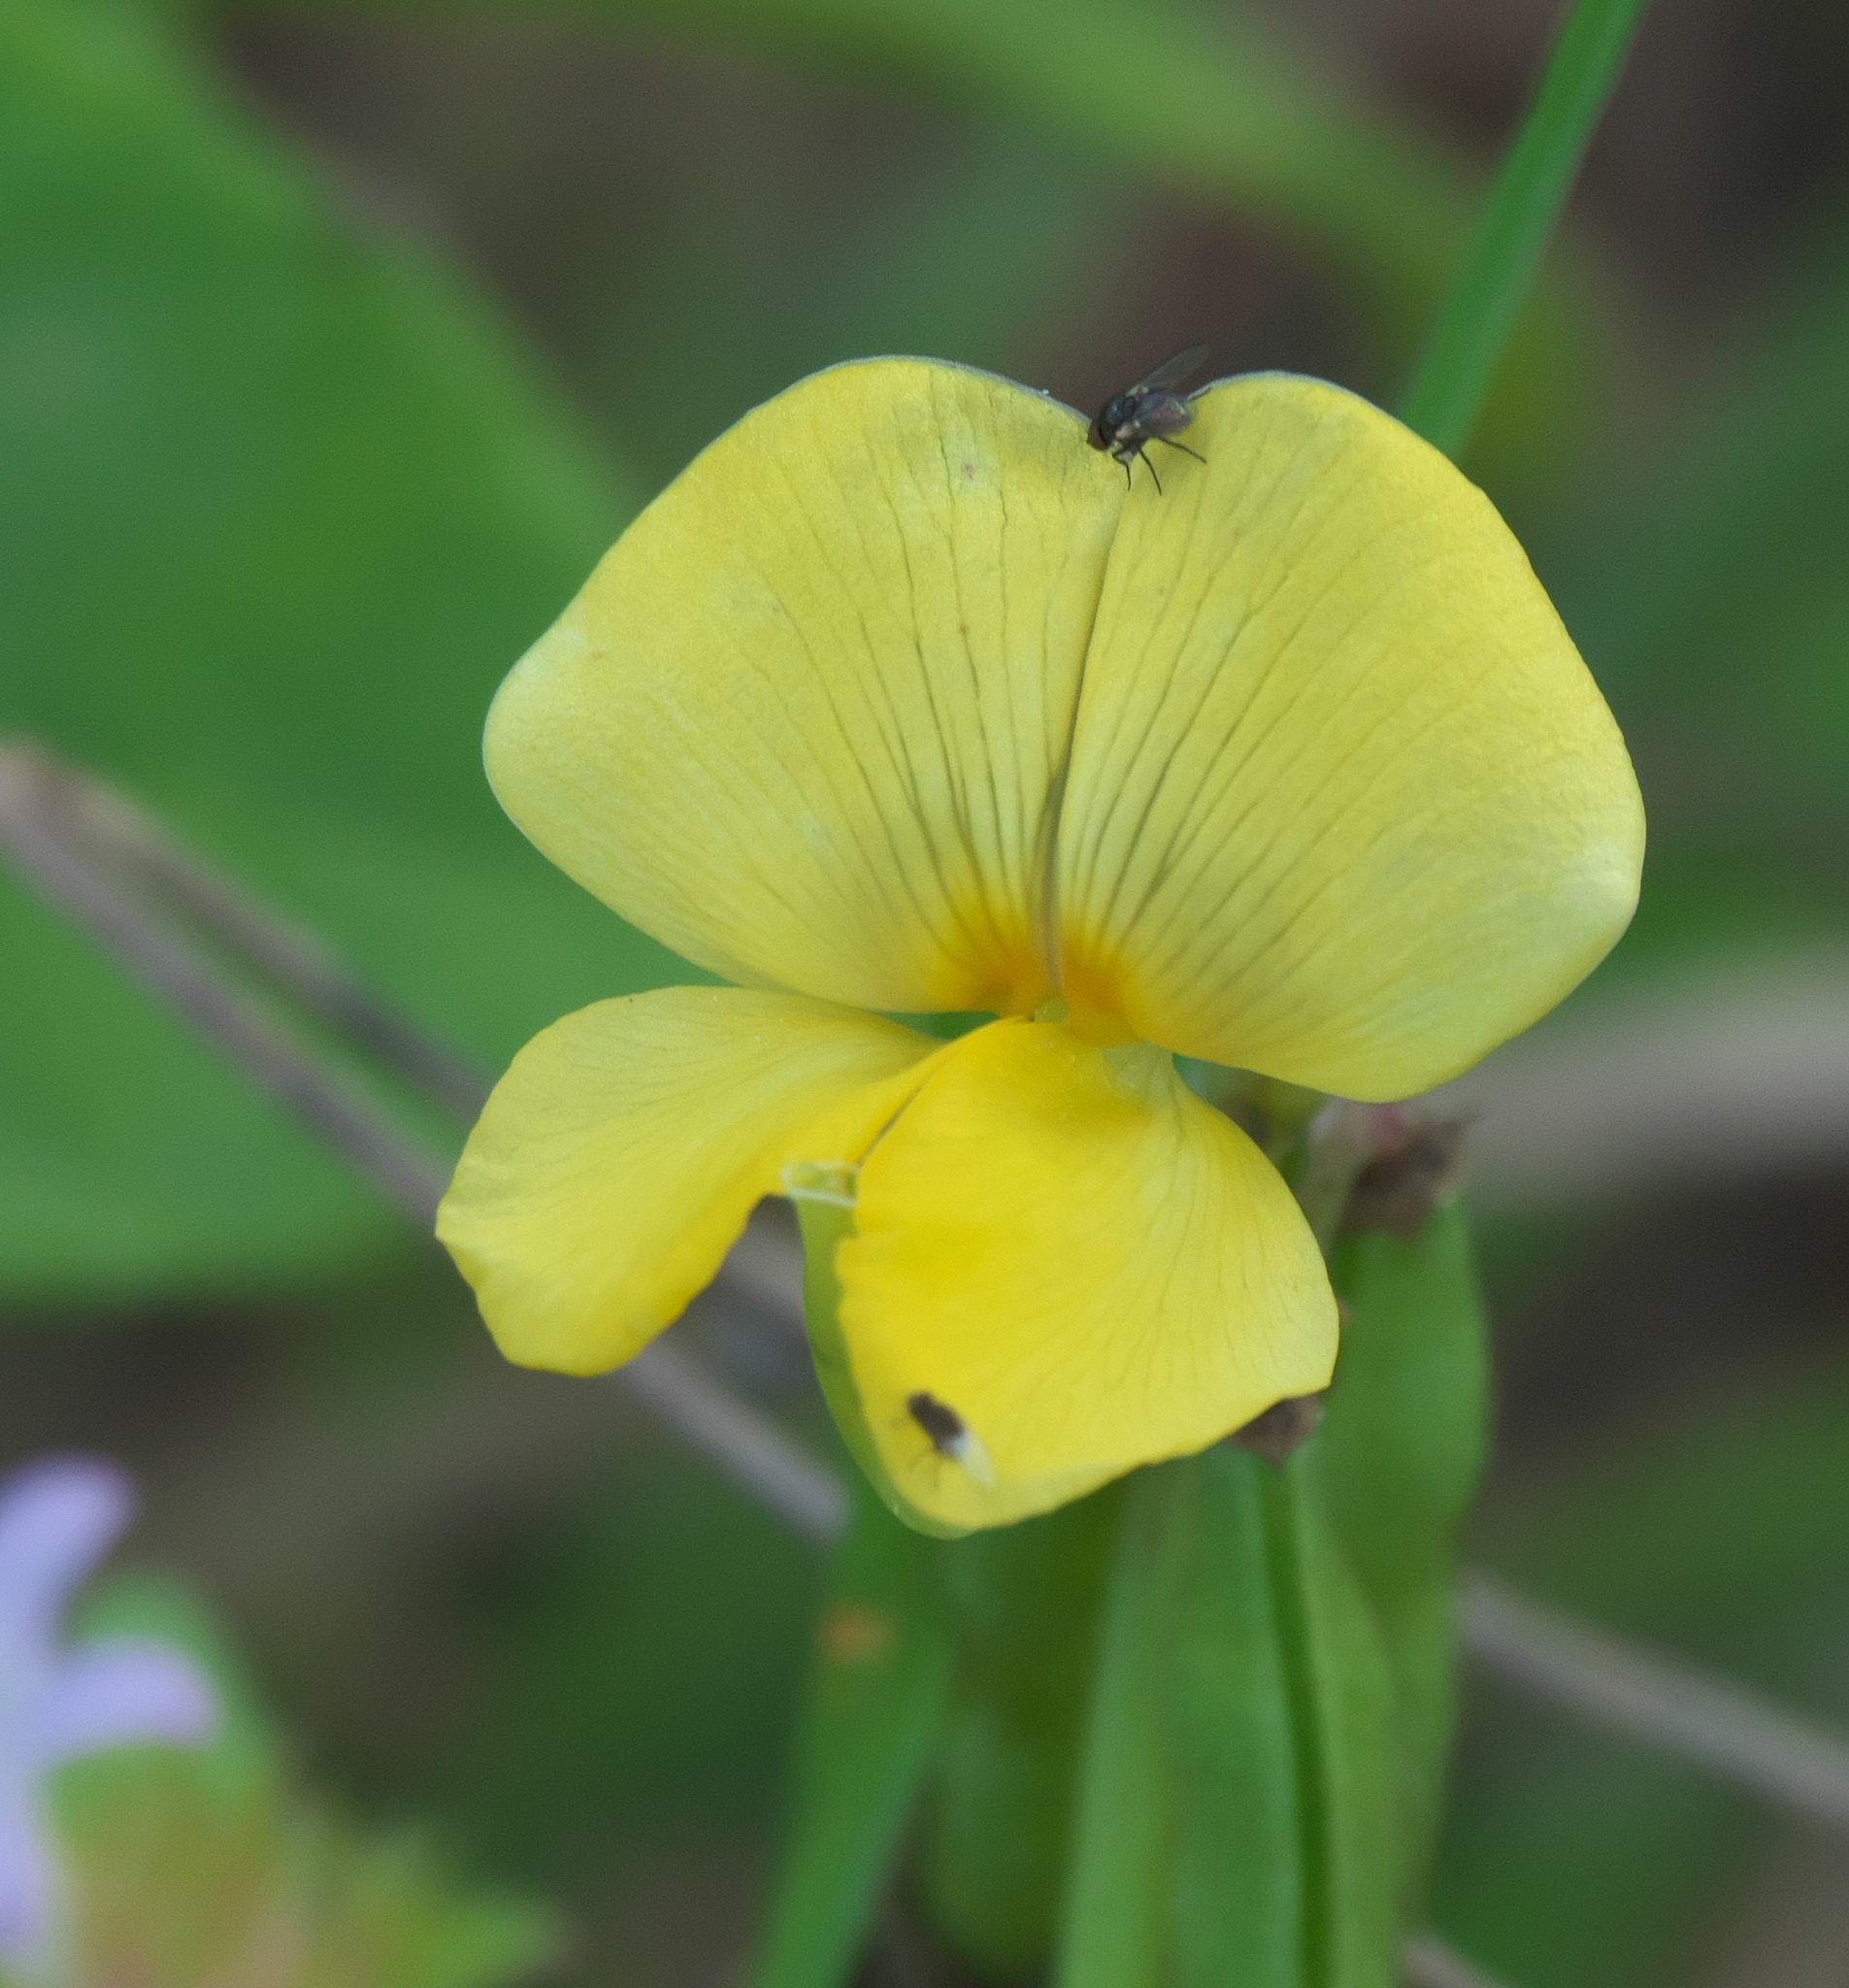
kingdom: Plantae
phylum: Tracheophyta
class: Magnoliopsida
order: Fabales
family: Fabaceae
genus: Vigna
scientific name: Vigna luteola
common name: Hairypod cowpea
